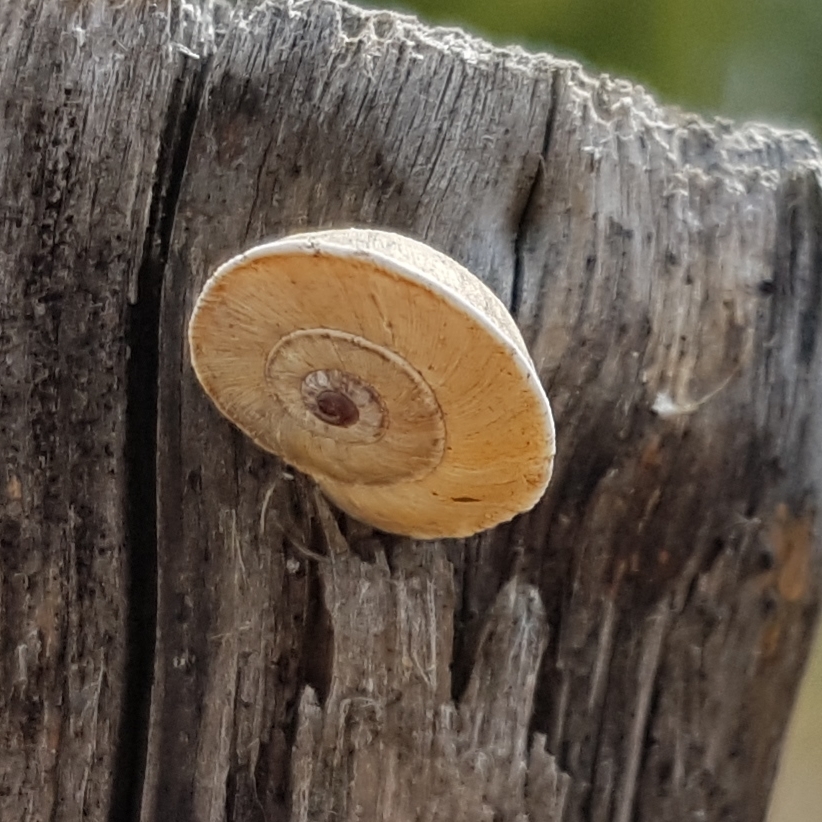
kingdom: Animalia
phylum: Mollusca
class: Gastropoda
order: Stylommatophora
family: Geomitridae
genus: Xerosecta
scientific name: Xerosecta explanata
